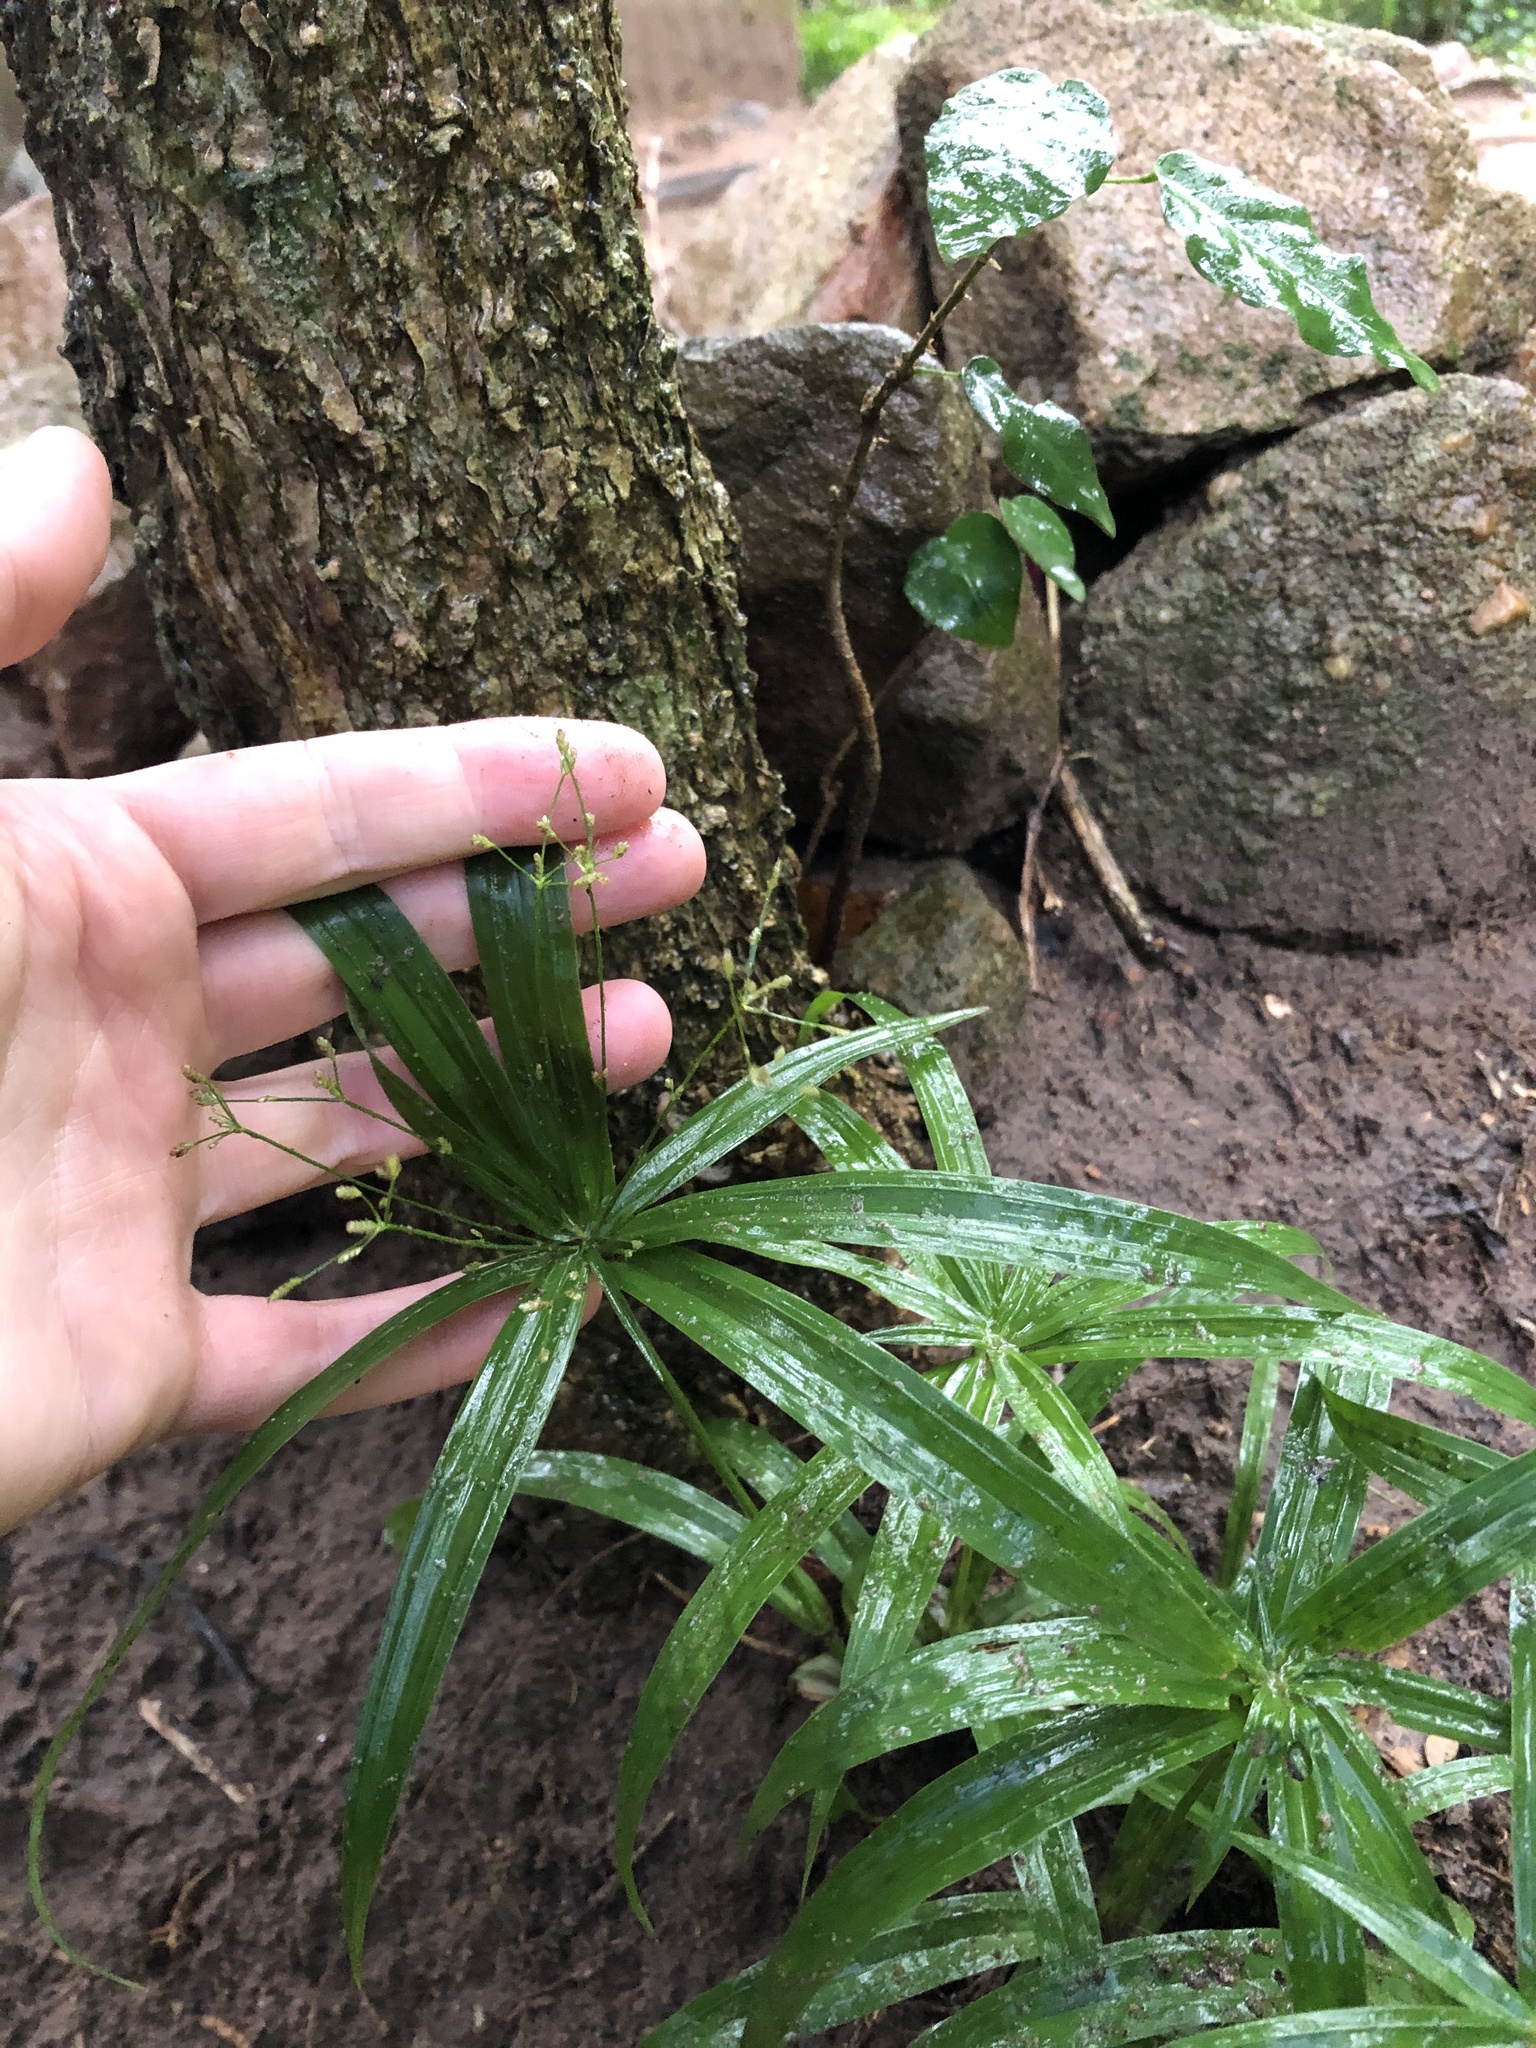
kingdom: Plantae
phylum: Tracheophyta
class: Liliopsida
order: Poales
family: Cyperaceae
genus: Cyperus
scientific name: Cyperus albostriatus
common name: Dwarf umbrella-grass
